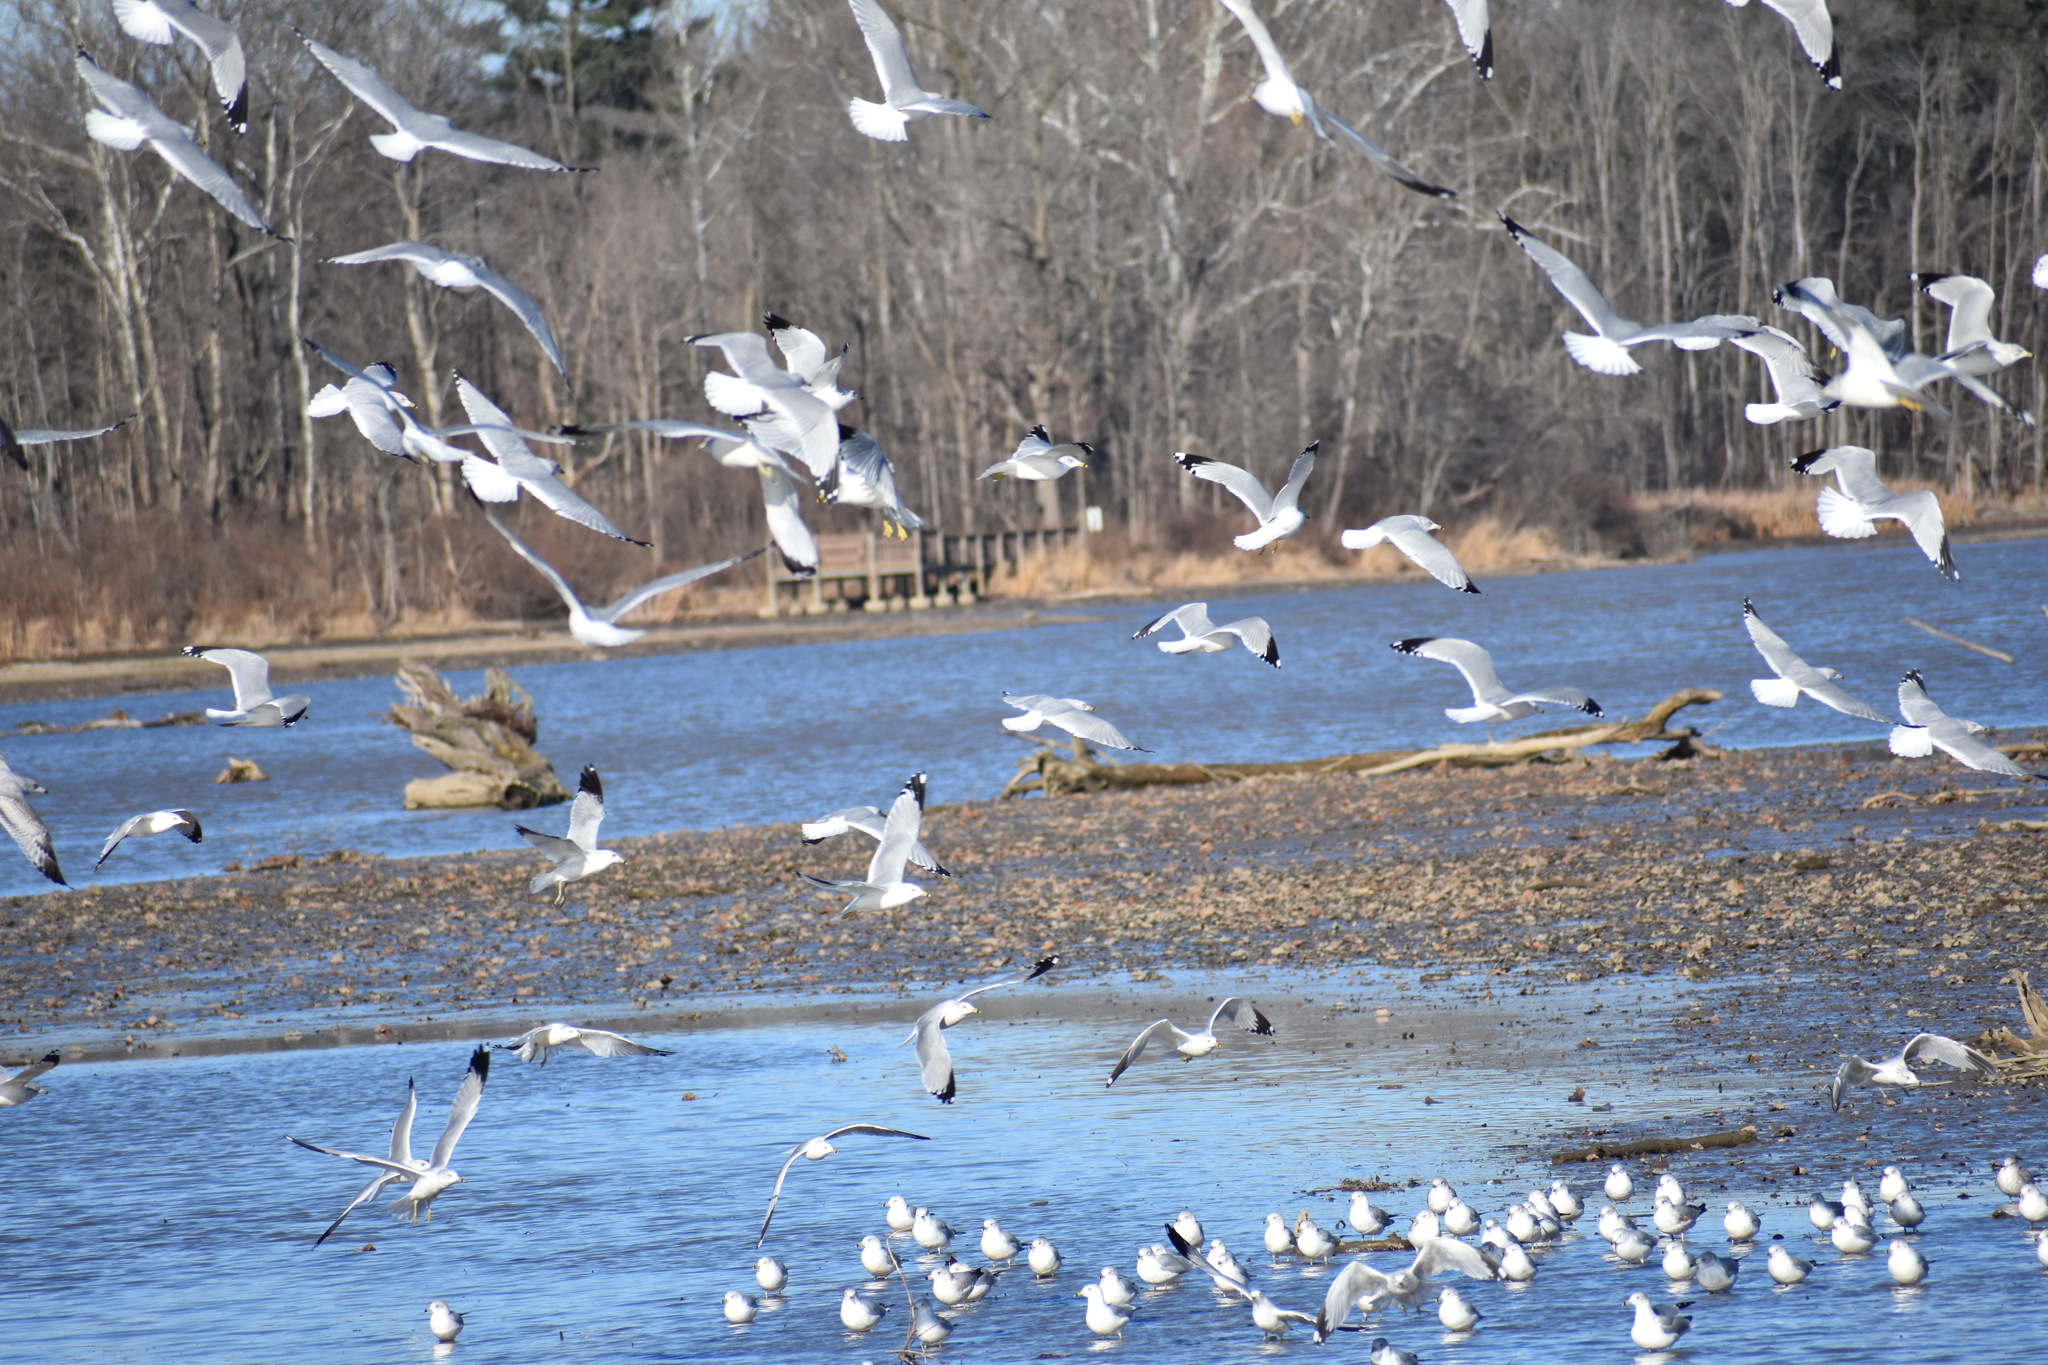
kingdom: Animalia
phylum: Chordata
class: Aves
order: Charadriiformes
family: Laridae
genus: Larus
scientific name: Larus delawarensis
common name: Ring-billed gull
